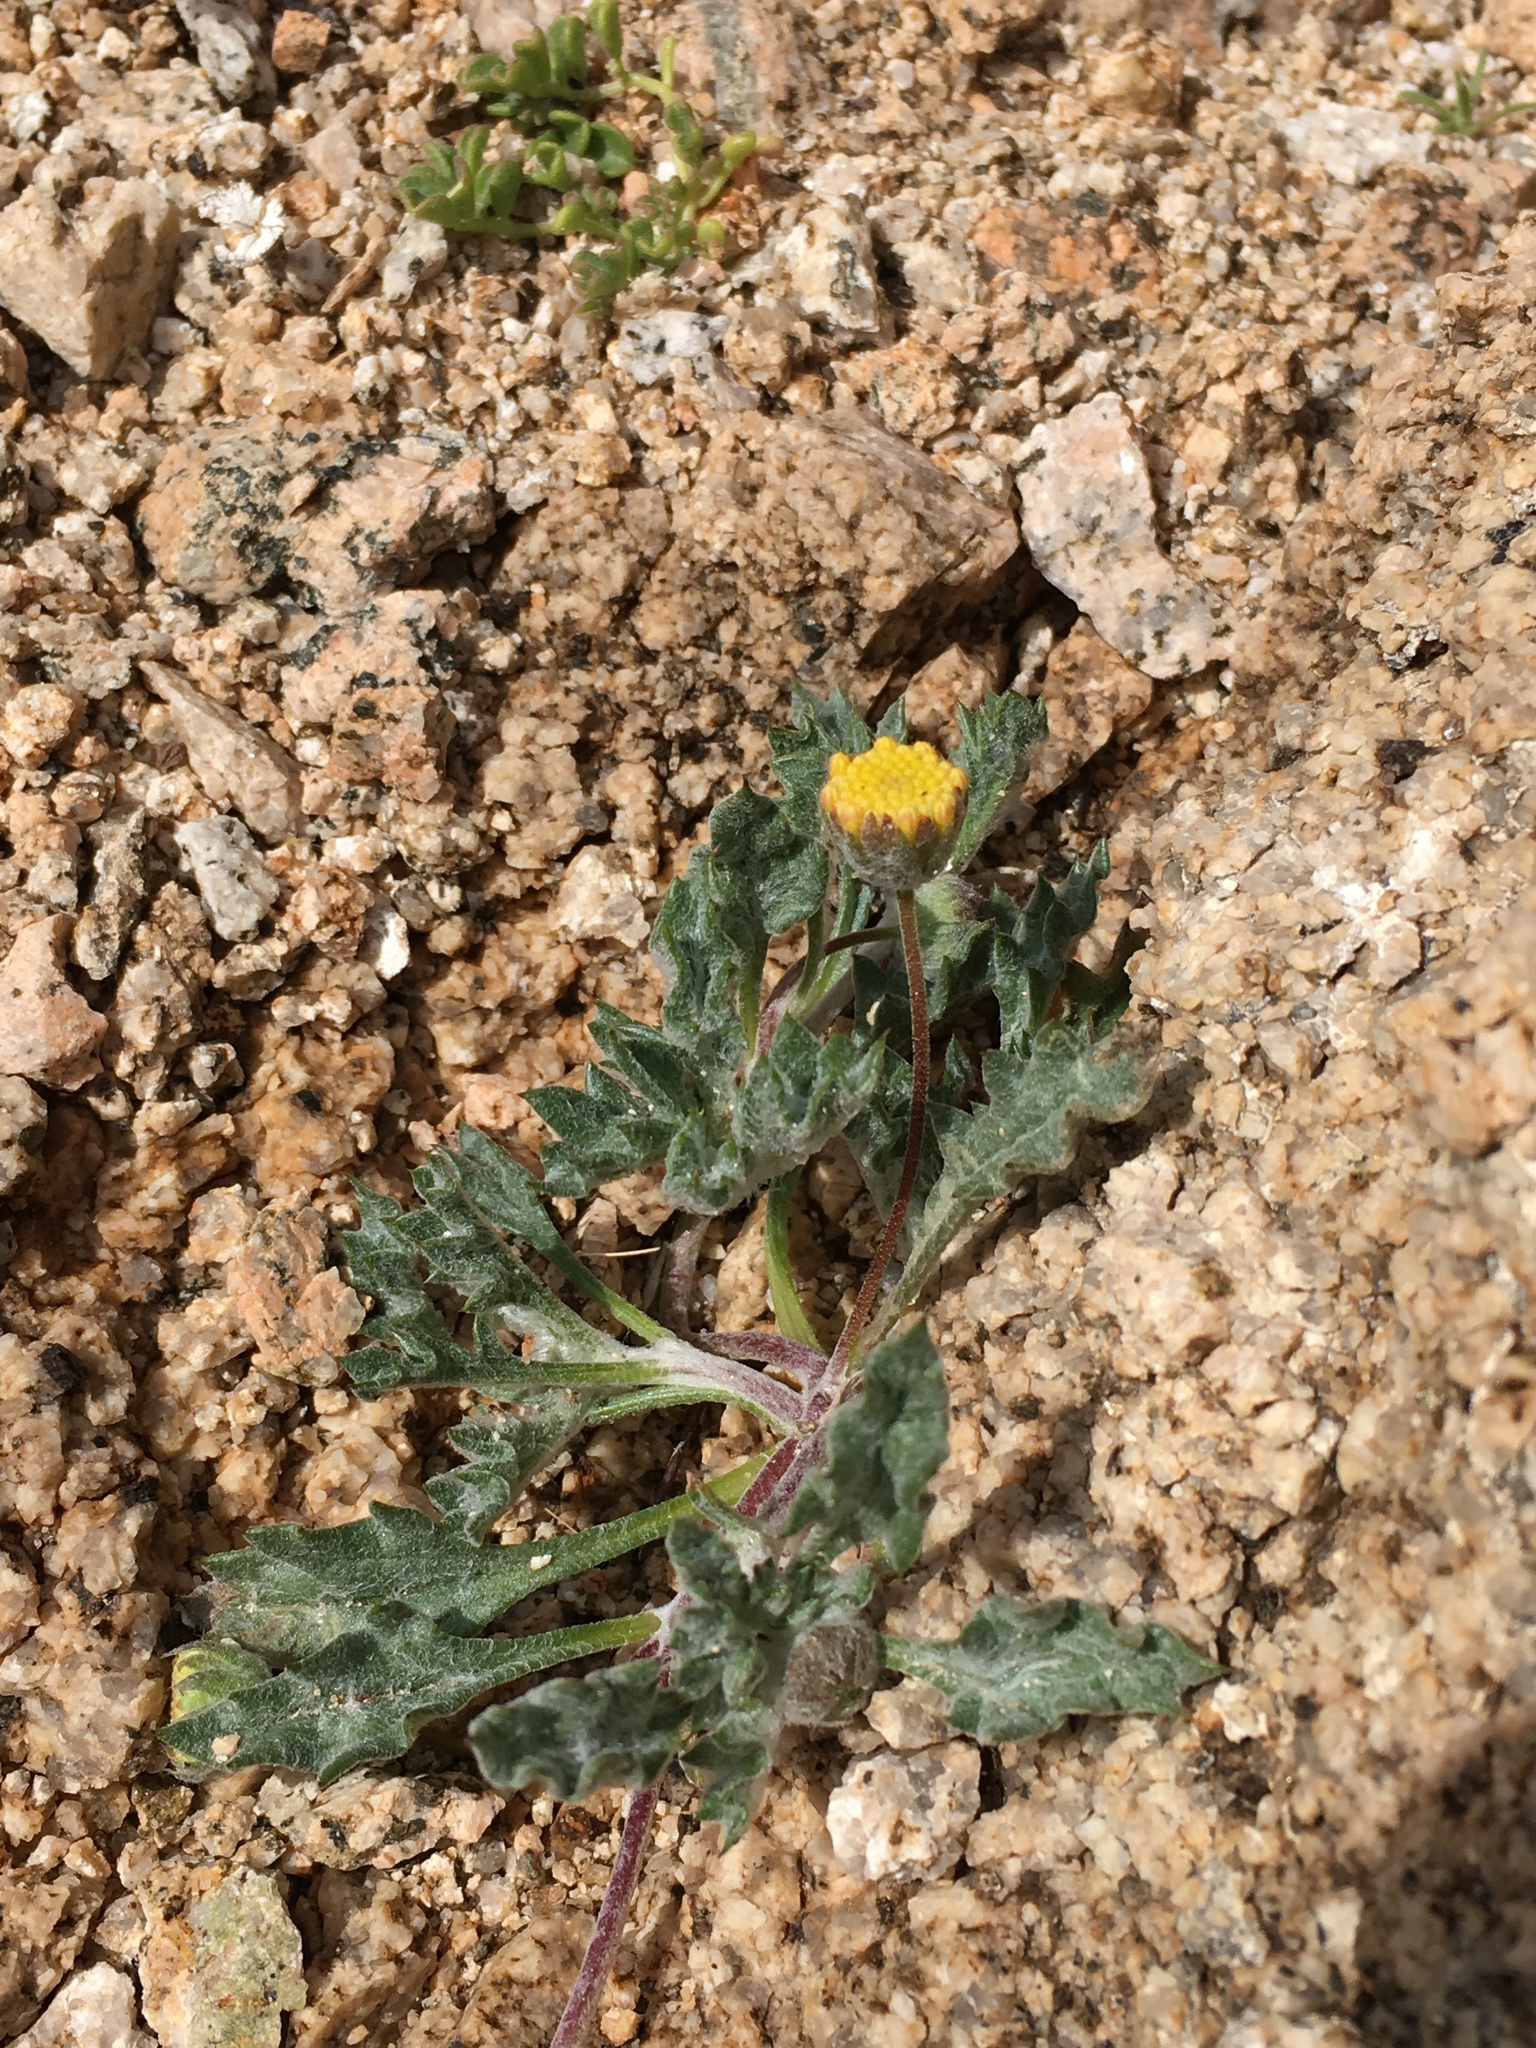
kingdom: Plantae
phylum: Tracheophyta
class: Magnoliopsida
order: Asterales
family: Asteraceae
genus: Trichoptilium
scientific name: Trichoptilium incisum
